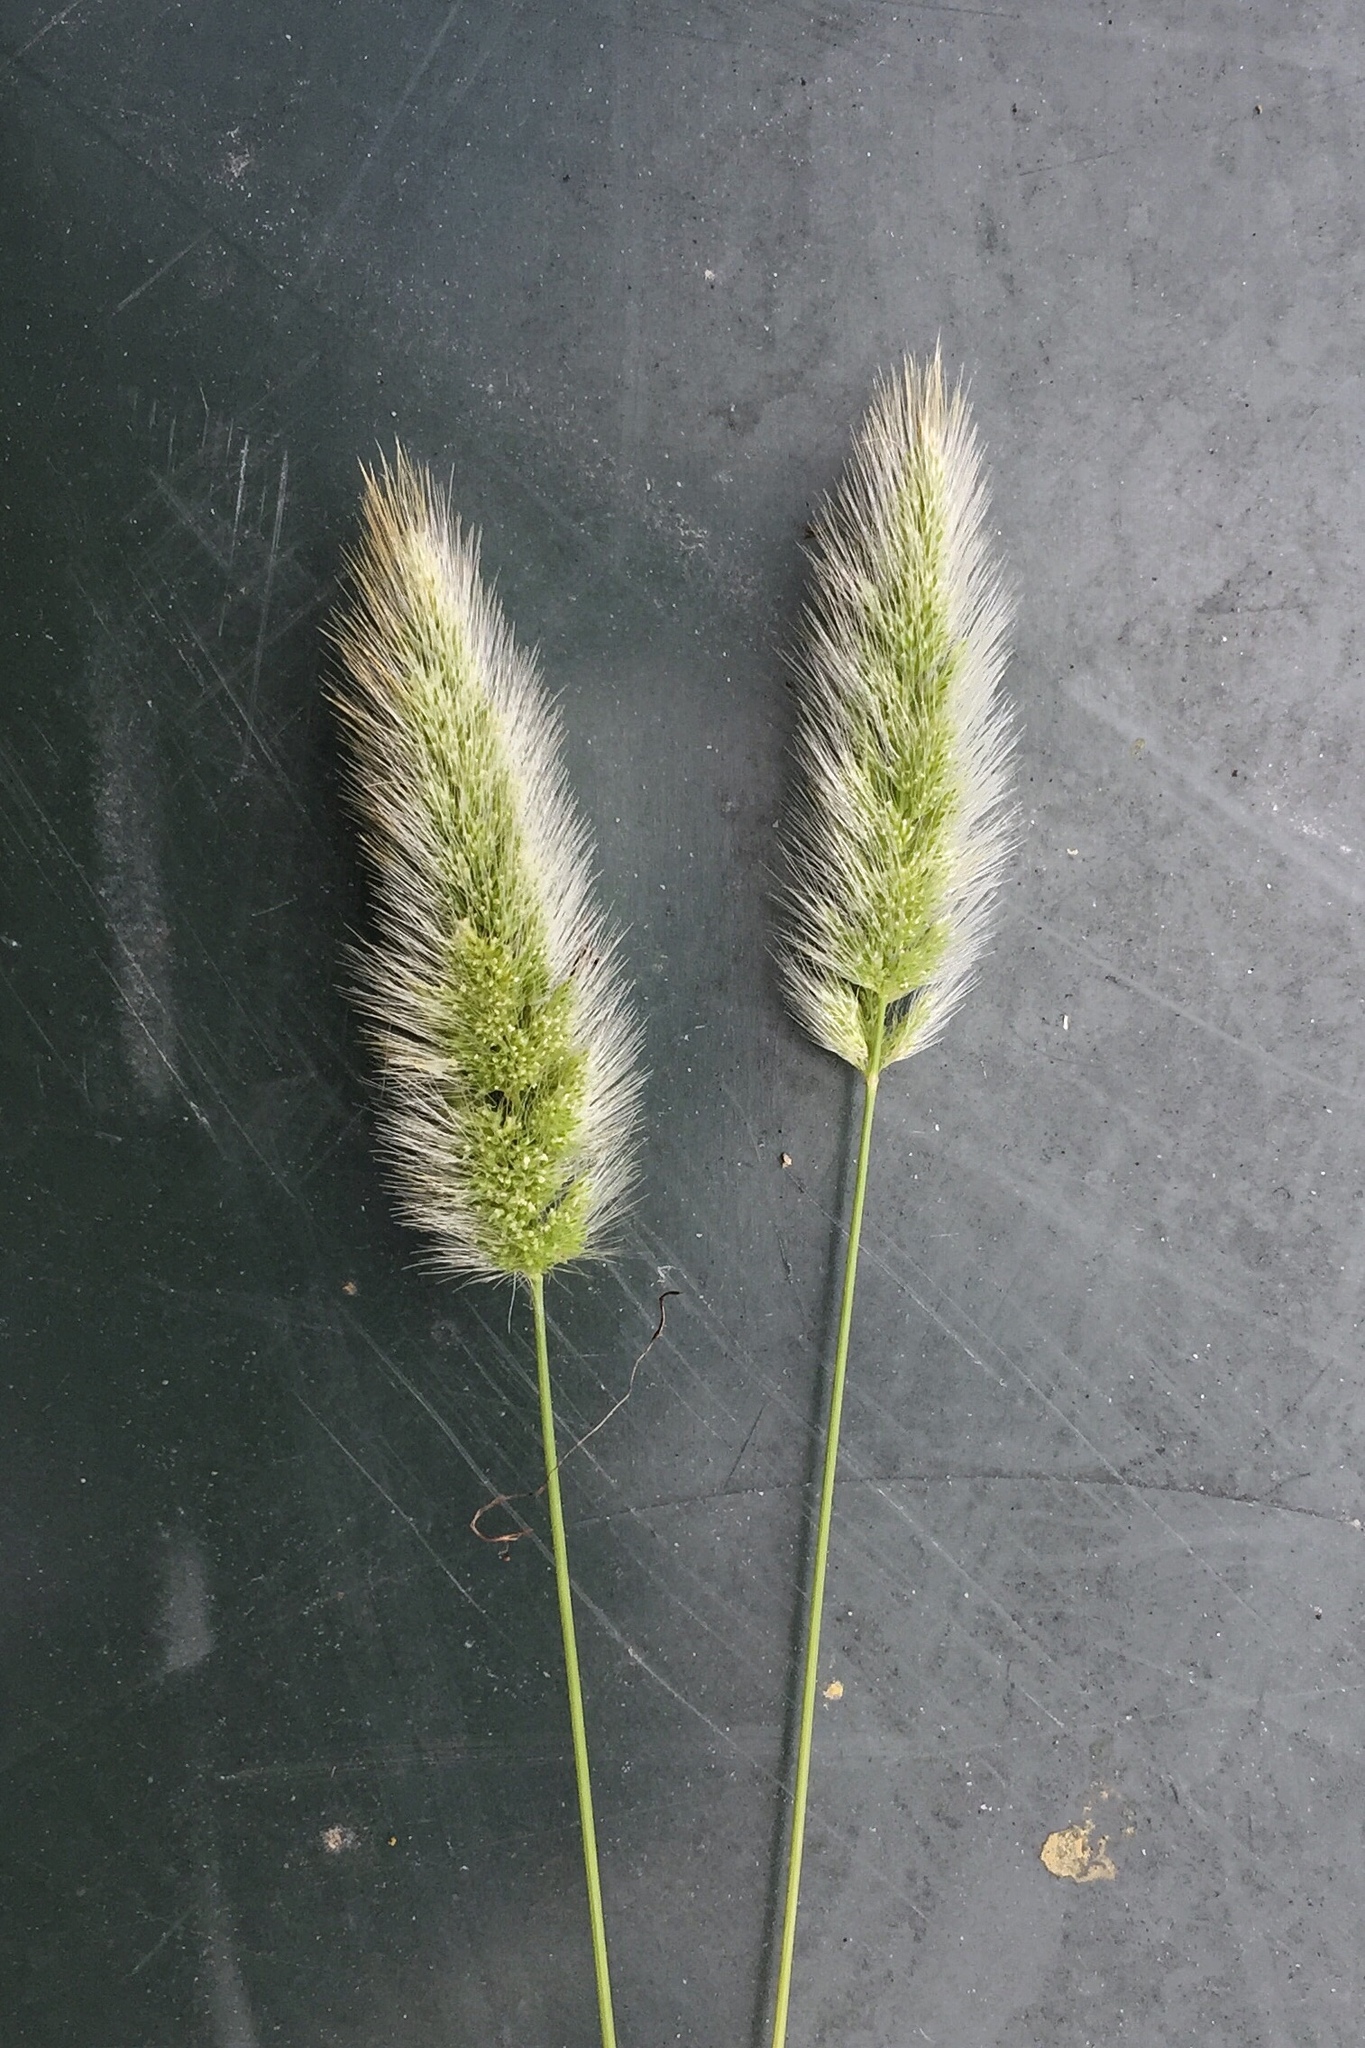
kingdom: Plantae
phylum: Tracheophyta
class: Liliopsida
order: Poales
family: Poaceae
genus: Polypogon
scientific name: Polypogon monspeliensis
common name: Annual rabbitsfoot grass
